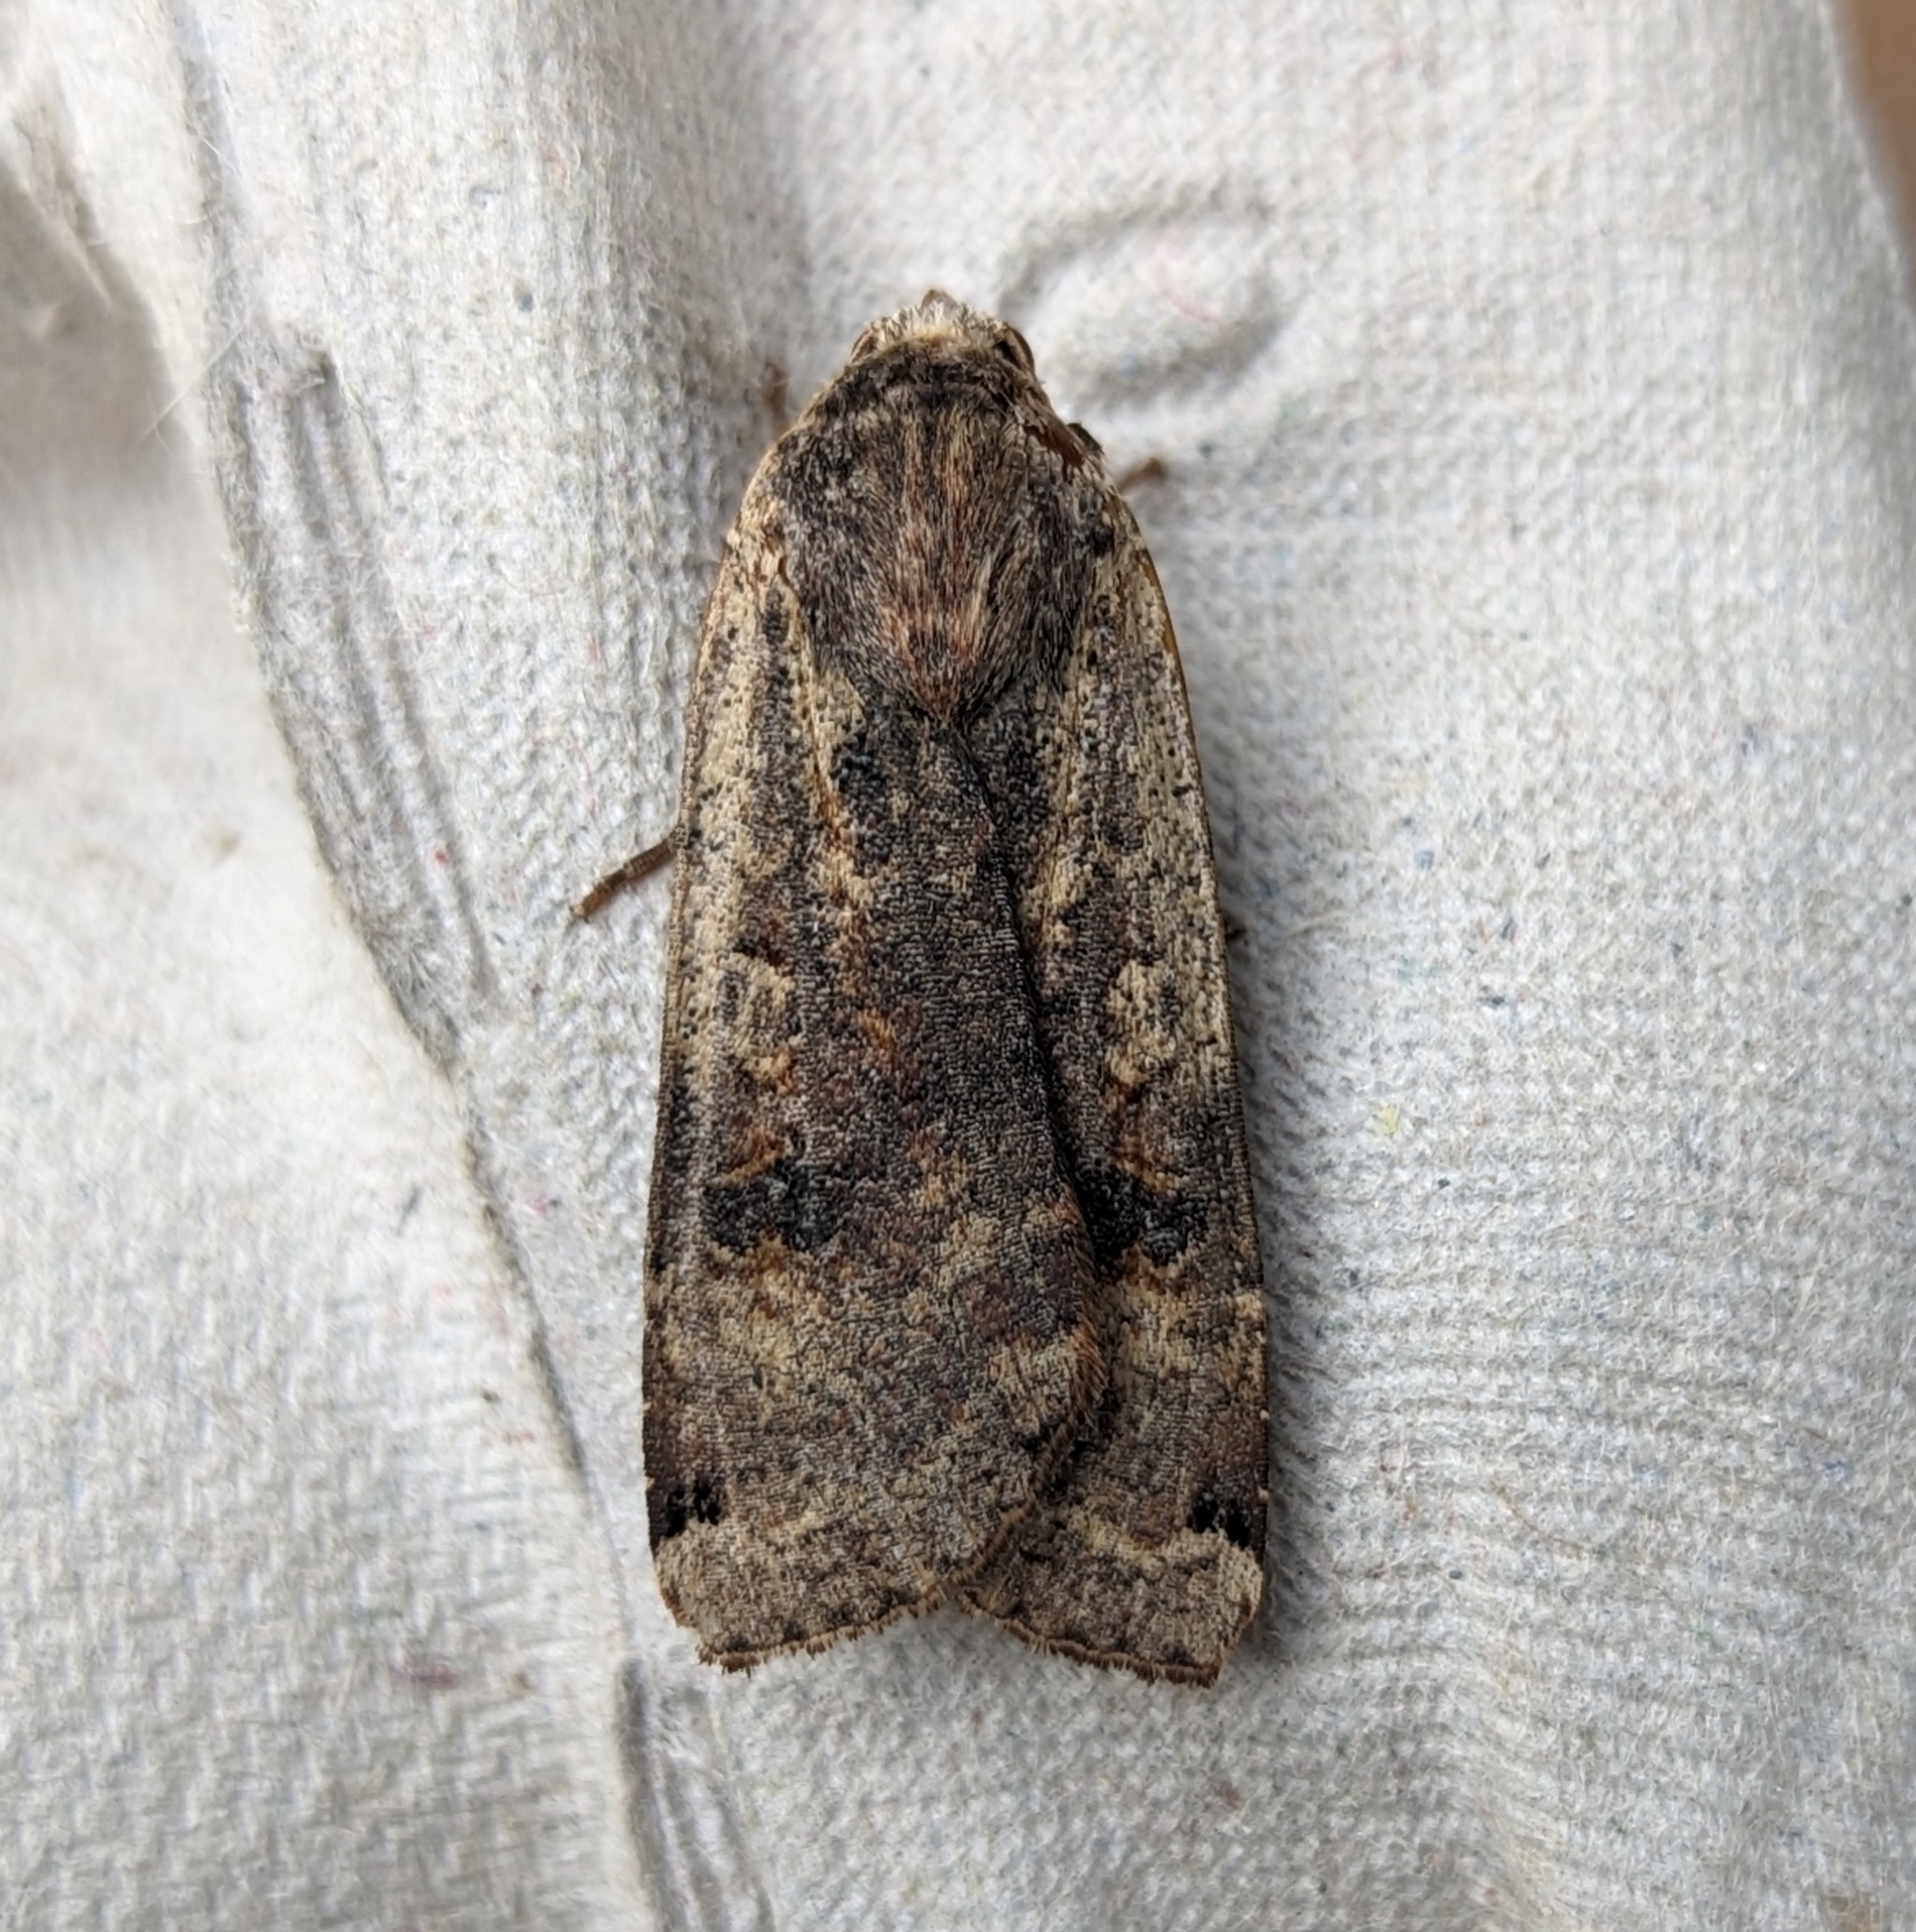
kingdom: Animalia
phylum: Arthropoda
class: Insecta
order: Lepidoptera
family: Noctuidae
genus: Noctua
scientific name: Noctua pronuba
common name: Large yellow underwing
